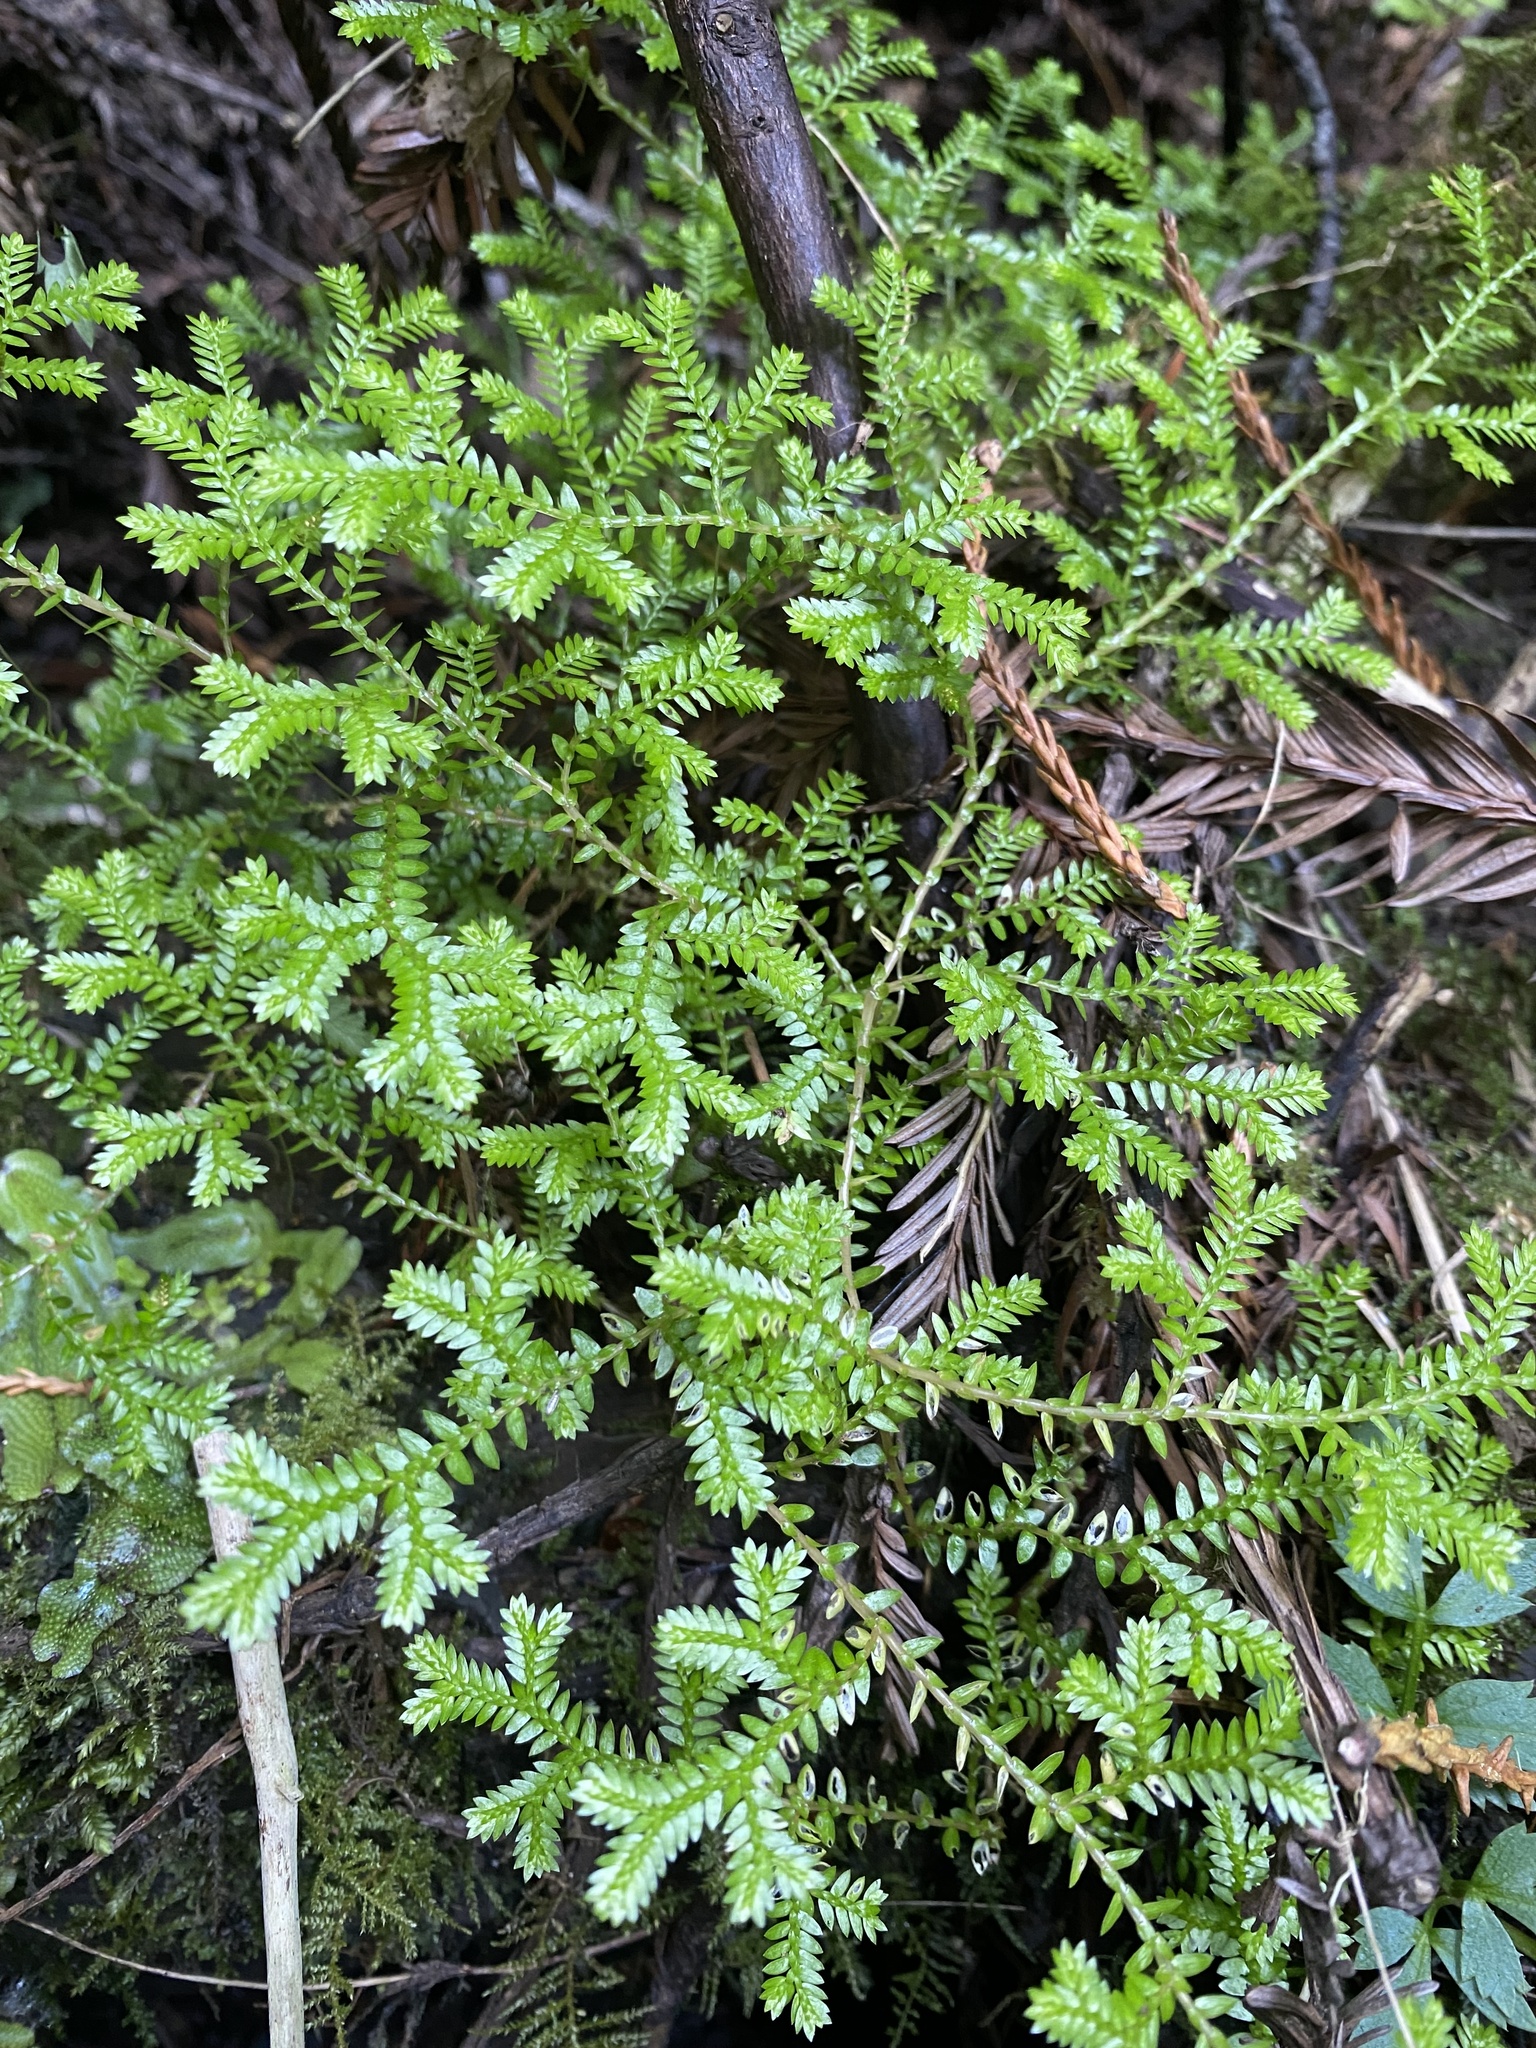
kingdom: Plantae
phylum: Tracheophyta
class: Lycopodiopsida
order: Selaginellales
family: Selaginellaceae
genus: Selaginella
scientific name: Selaginella kraussiana
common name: Krauss' spikemoss
